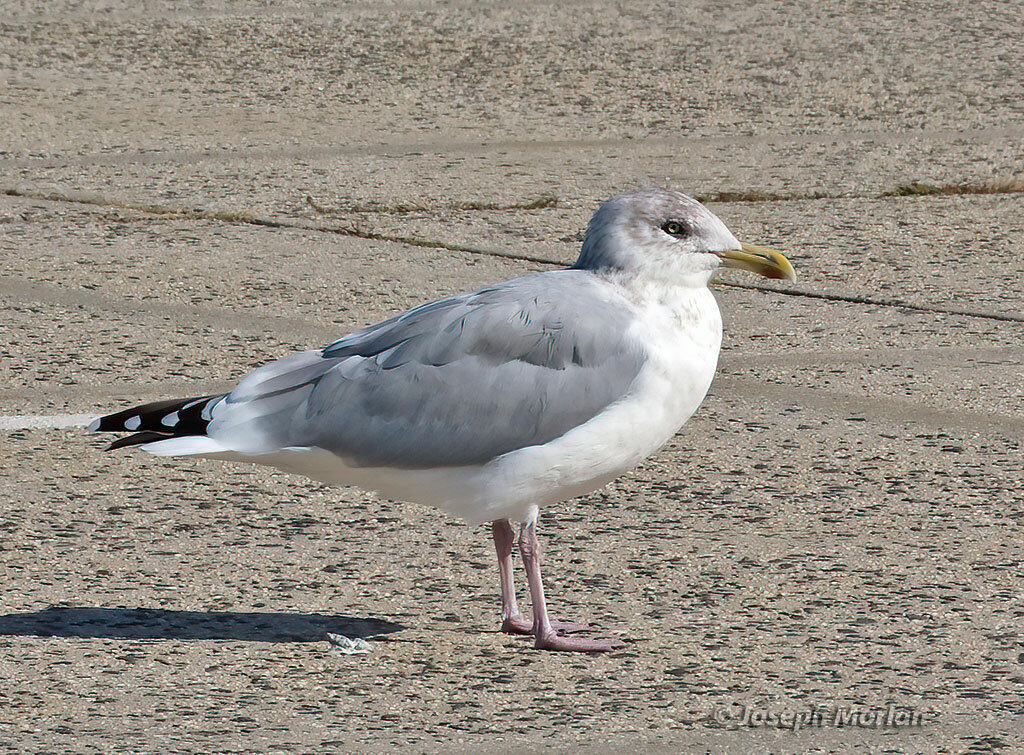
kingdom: Animalia
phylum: Chordata
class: Aves
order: Charadriiformes
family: Laridae
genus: Larus
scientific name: Larus argentatus
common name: Herring gull
